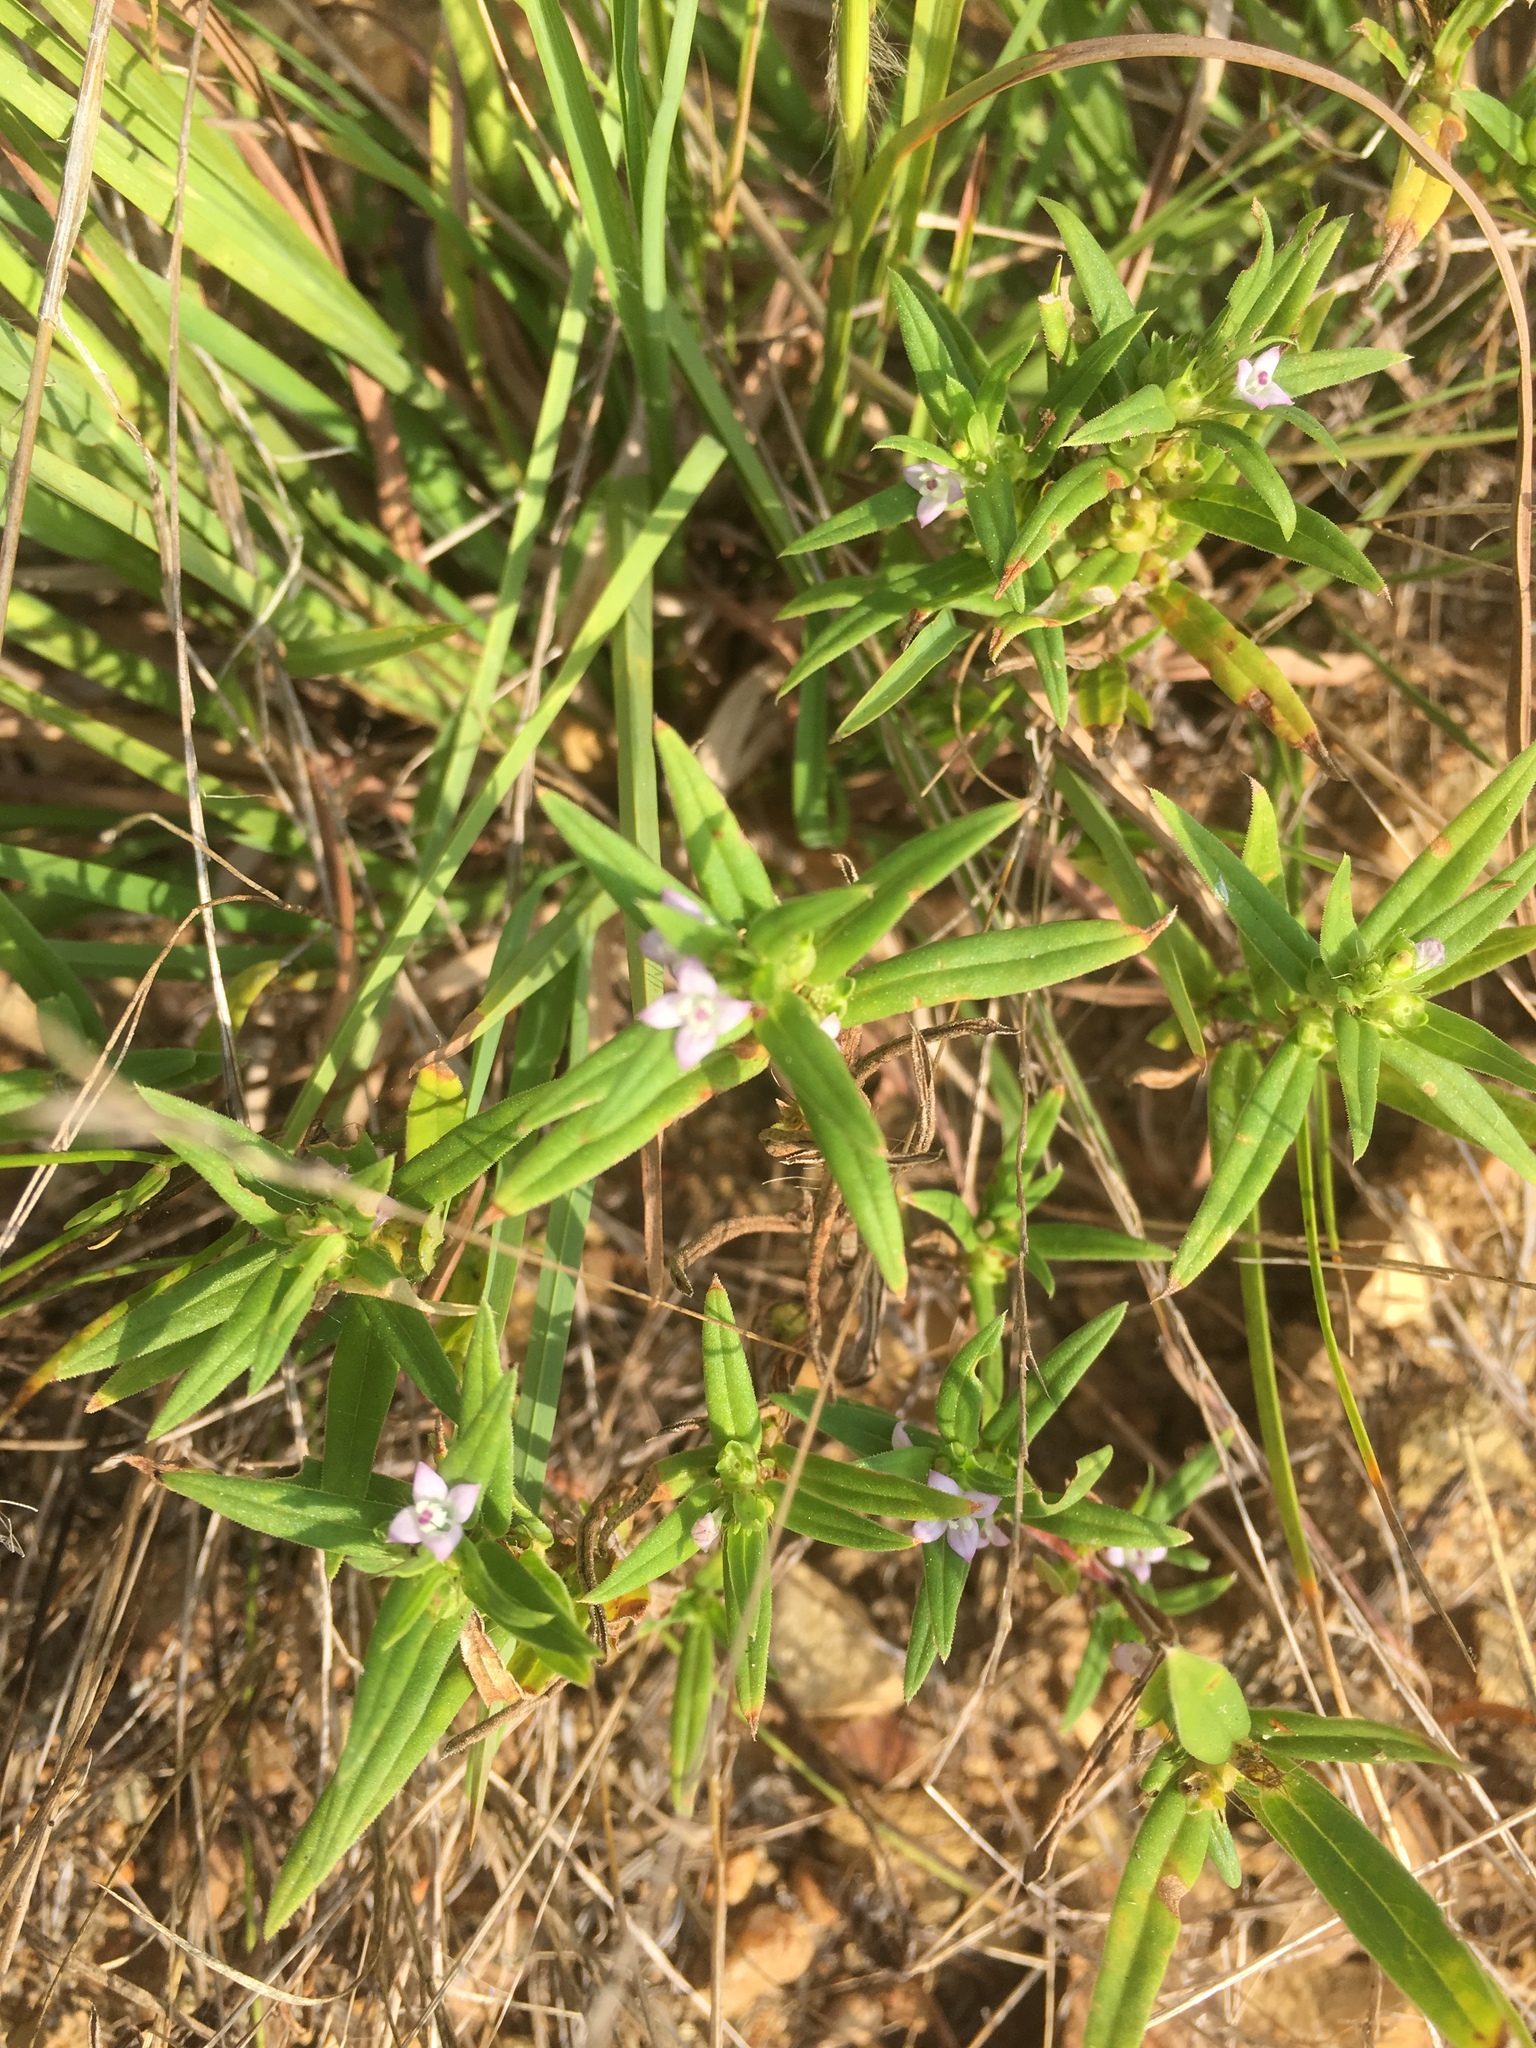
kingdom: Plantae
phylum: Tracheophyta
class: Magnoliopsida
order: Gentianales
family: Rubiaceae
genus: Hexasepalum
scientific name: Hexasepalum teres
